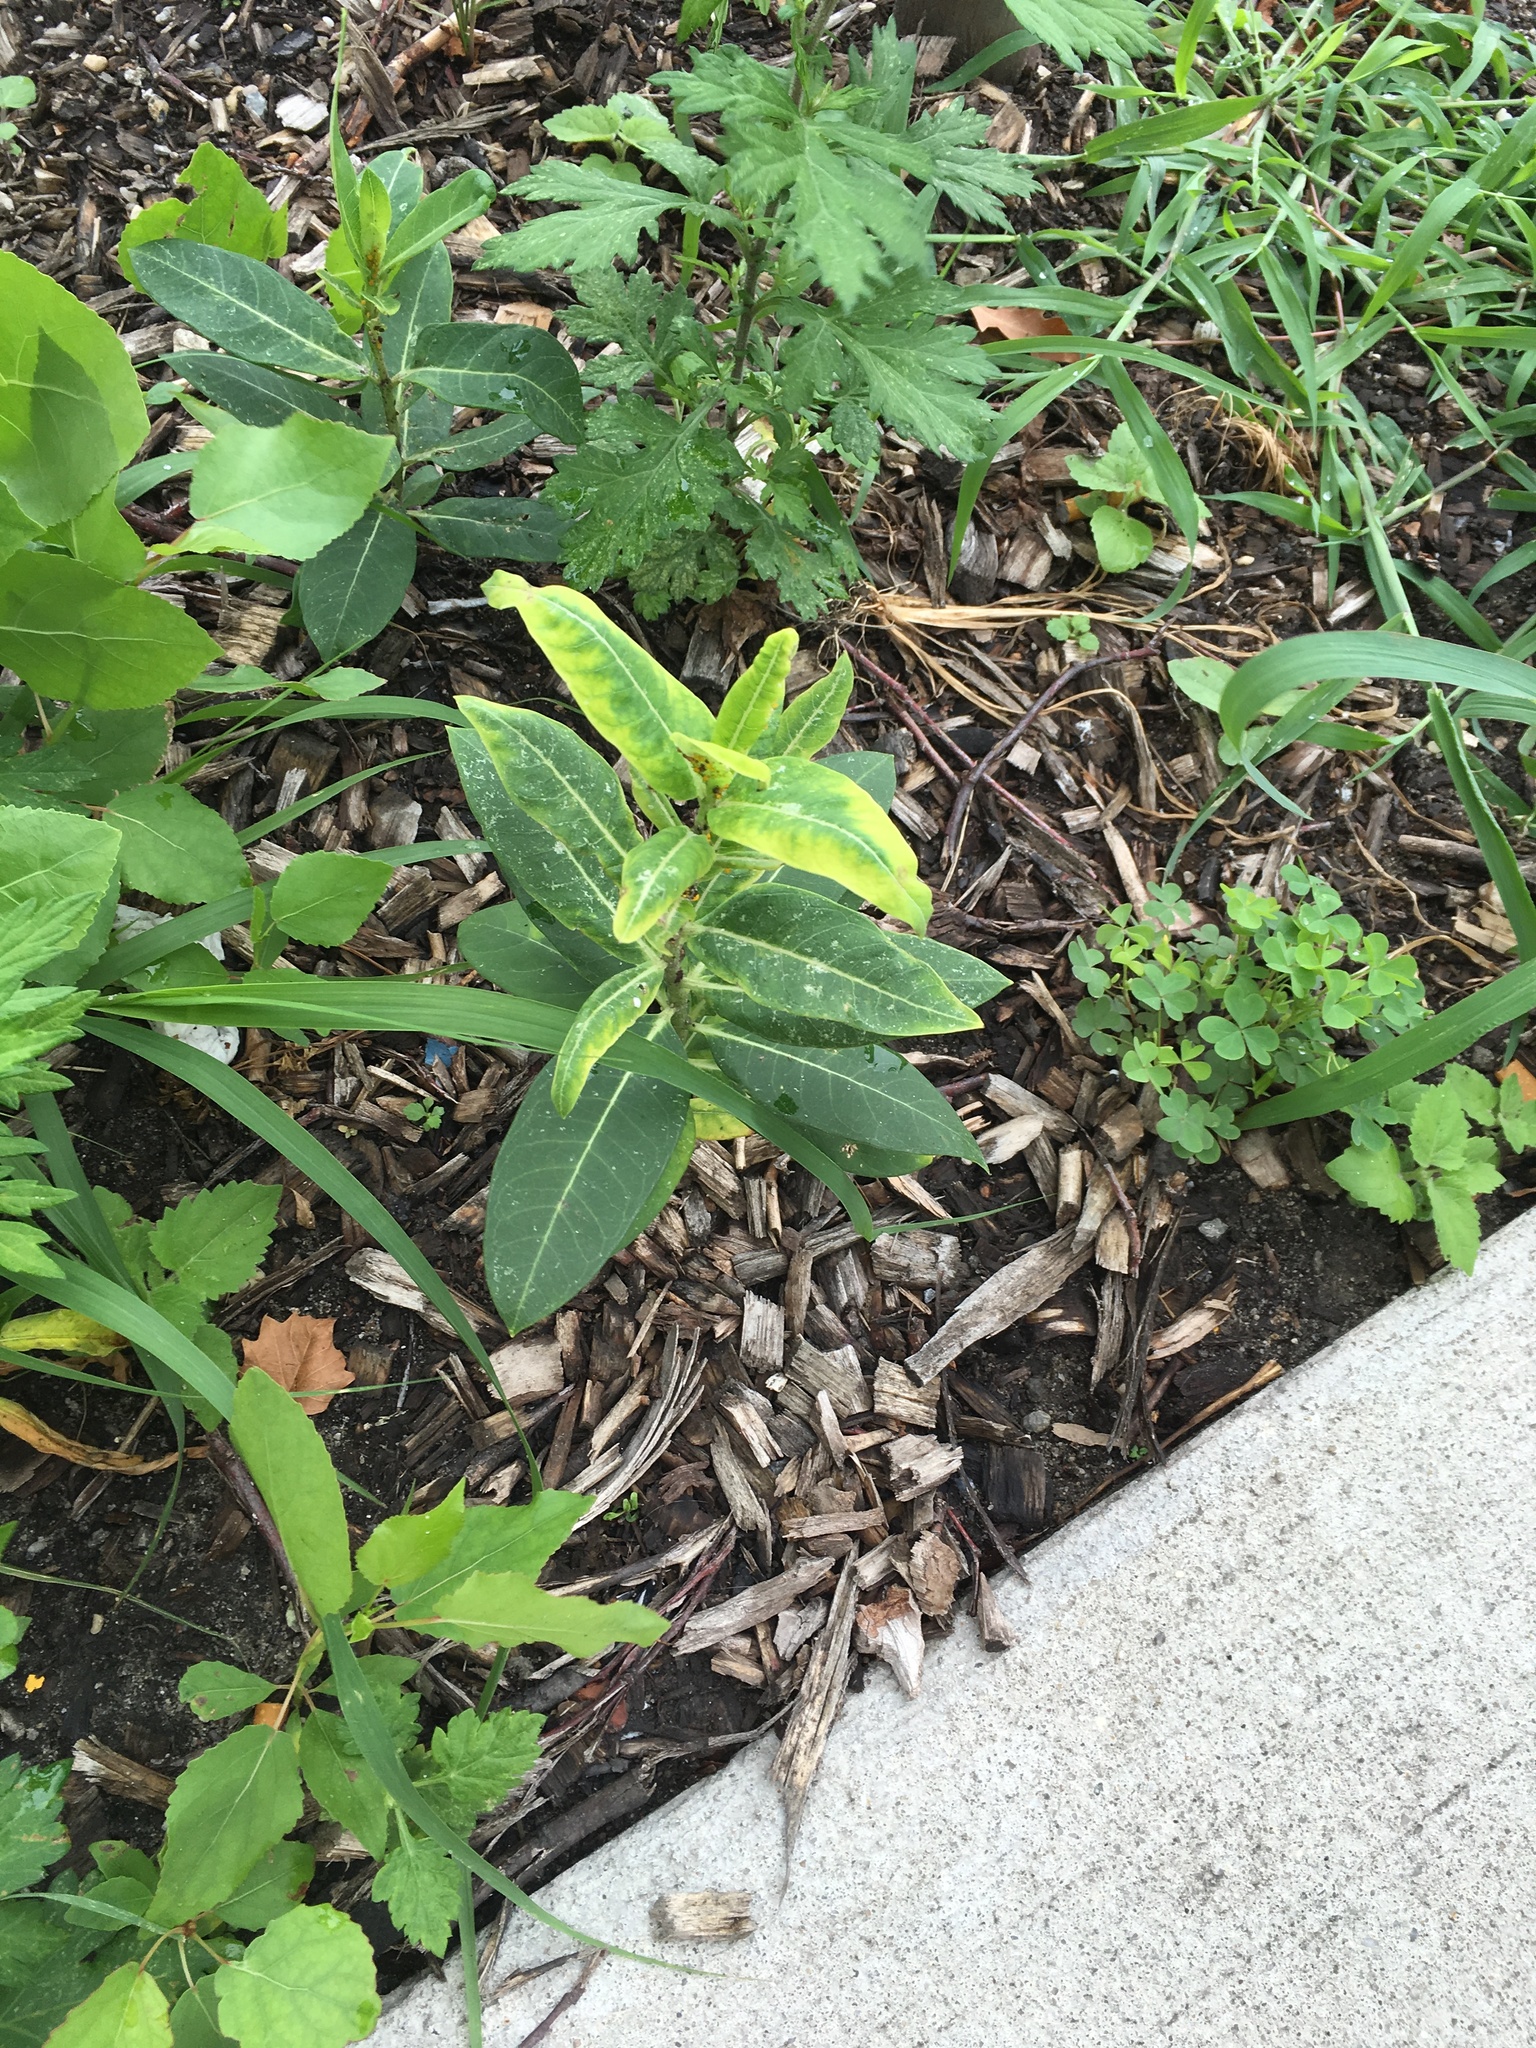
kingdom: Plantae
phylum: Tracheophyta
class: Magnoliopsida
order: Gentianales
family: Apocynaceae
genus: Asclepias
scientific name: Asclepias syriaca
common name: Common milkweed
